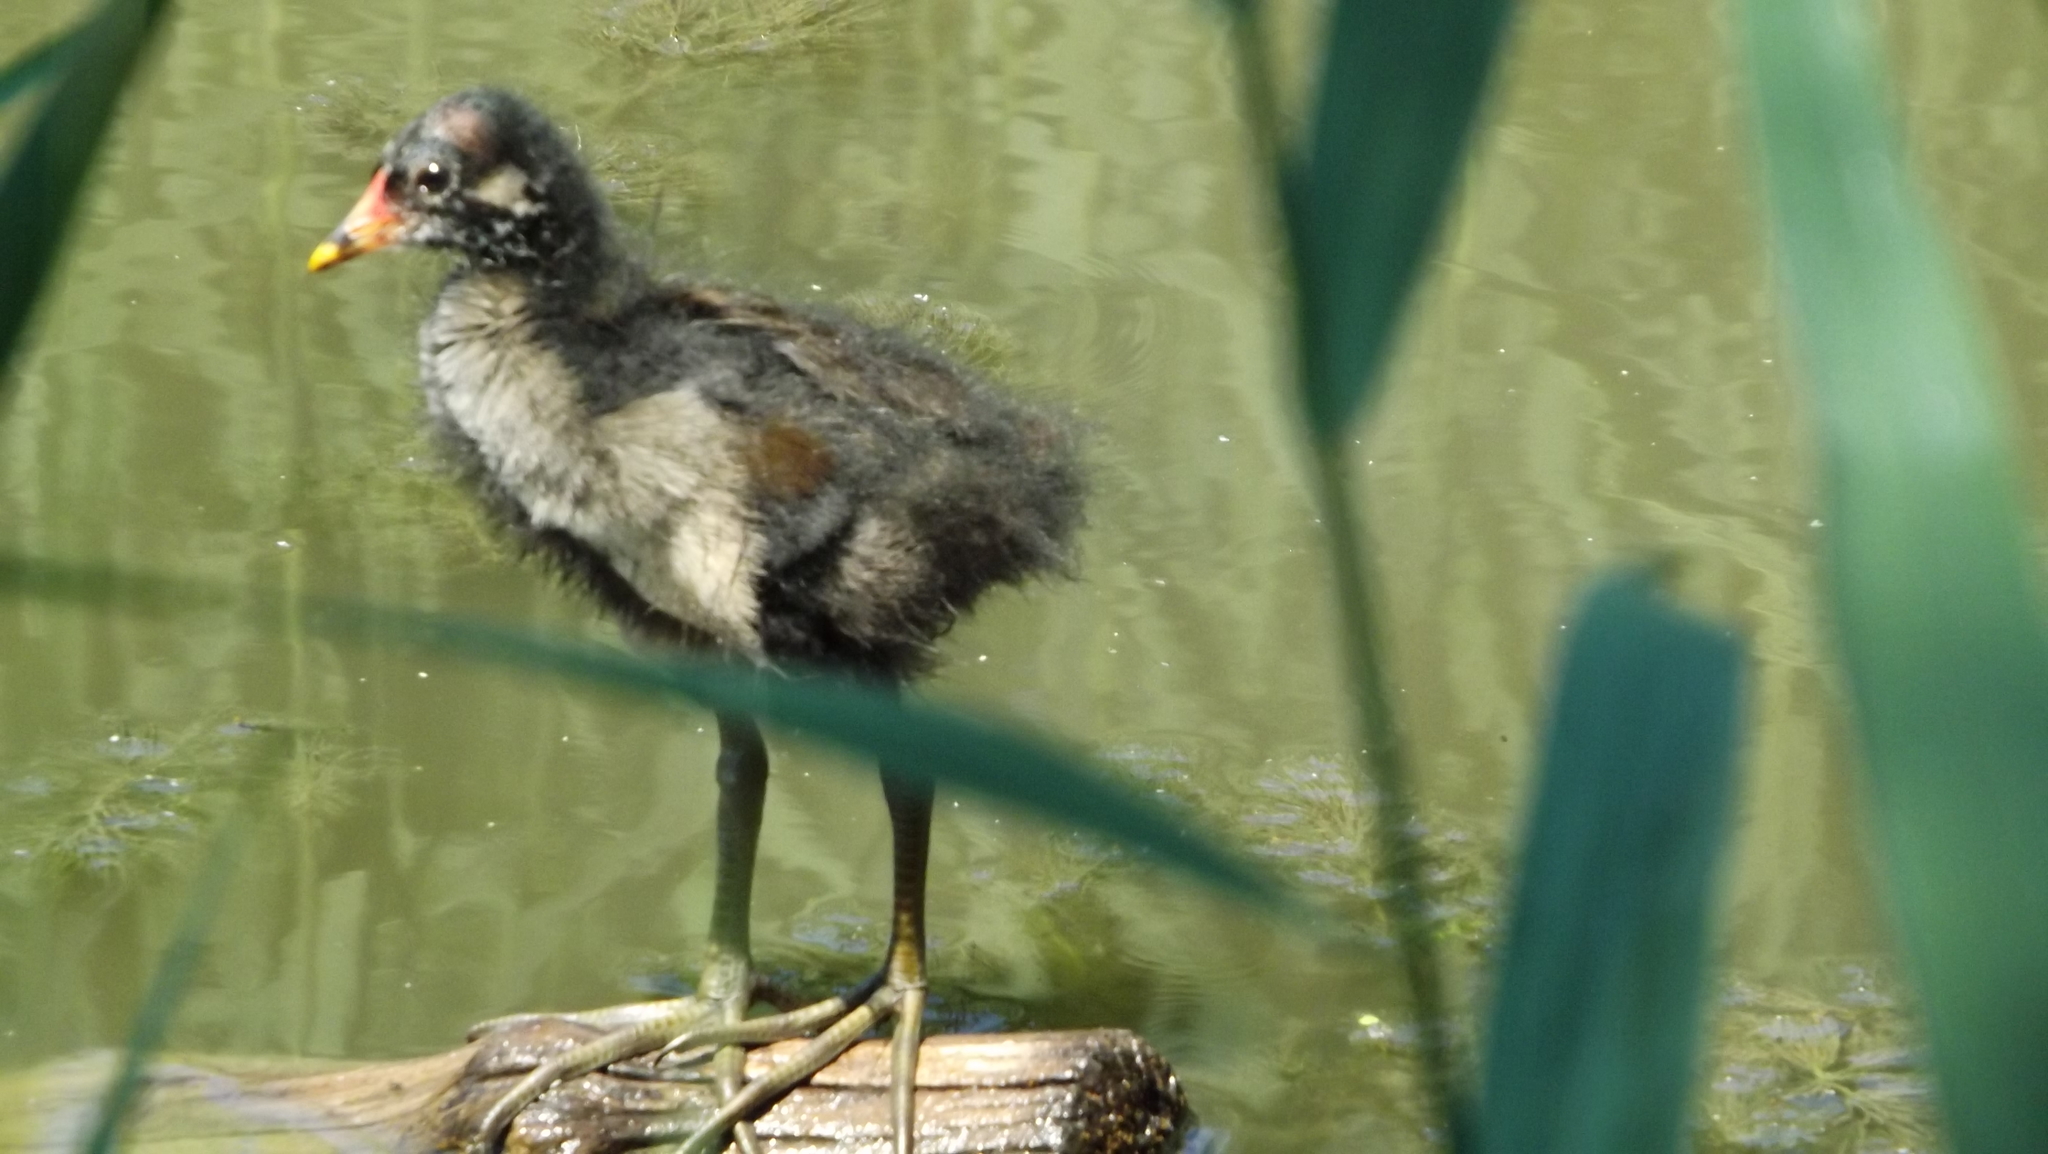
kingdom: Animalia
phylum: Chordata
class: Aves
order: Gruiformes
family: Rallidae
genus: Gallinula
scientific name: Gallinula chloropus
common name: Common moorhen
